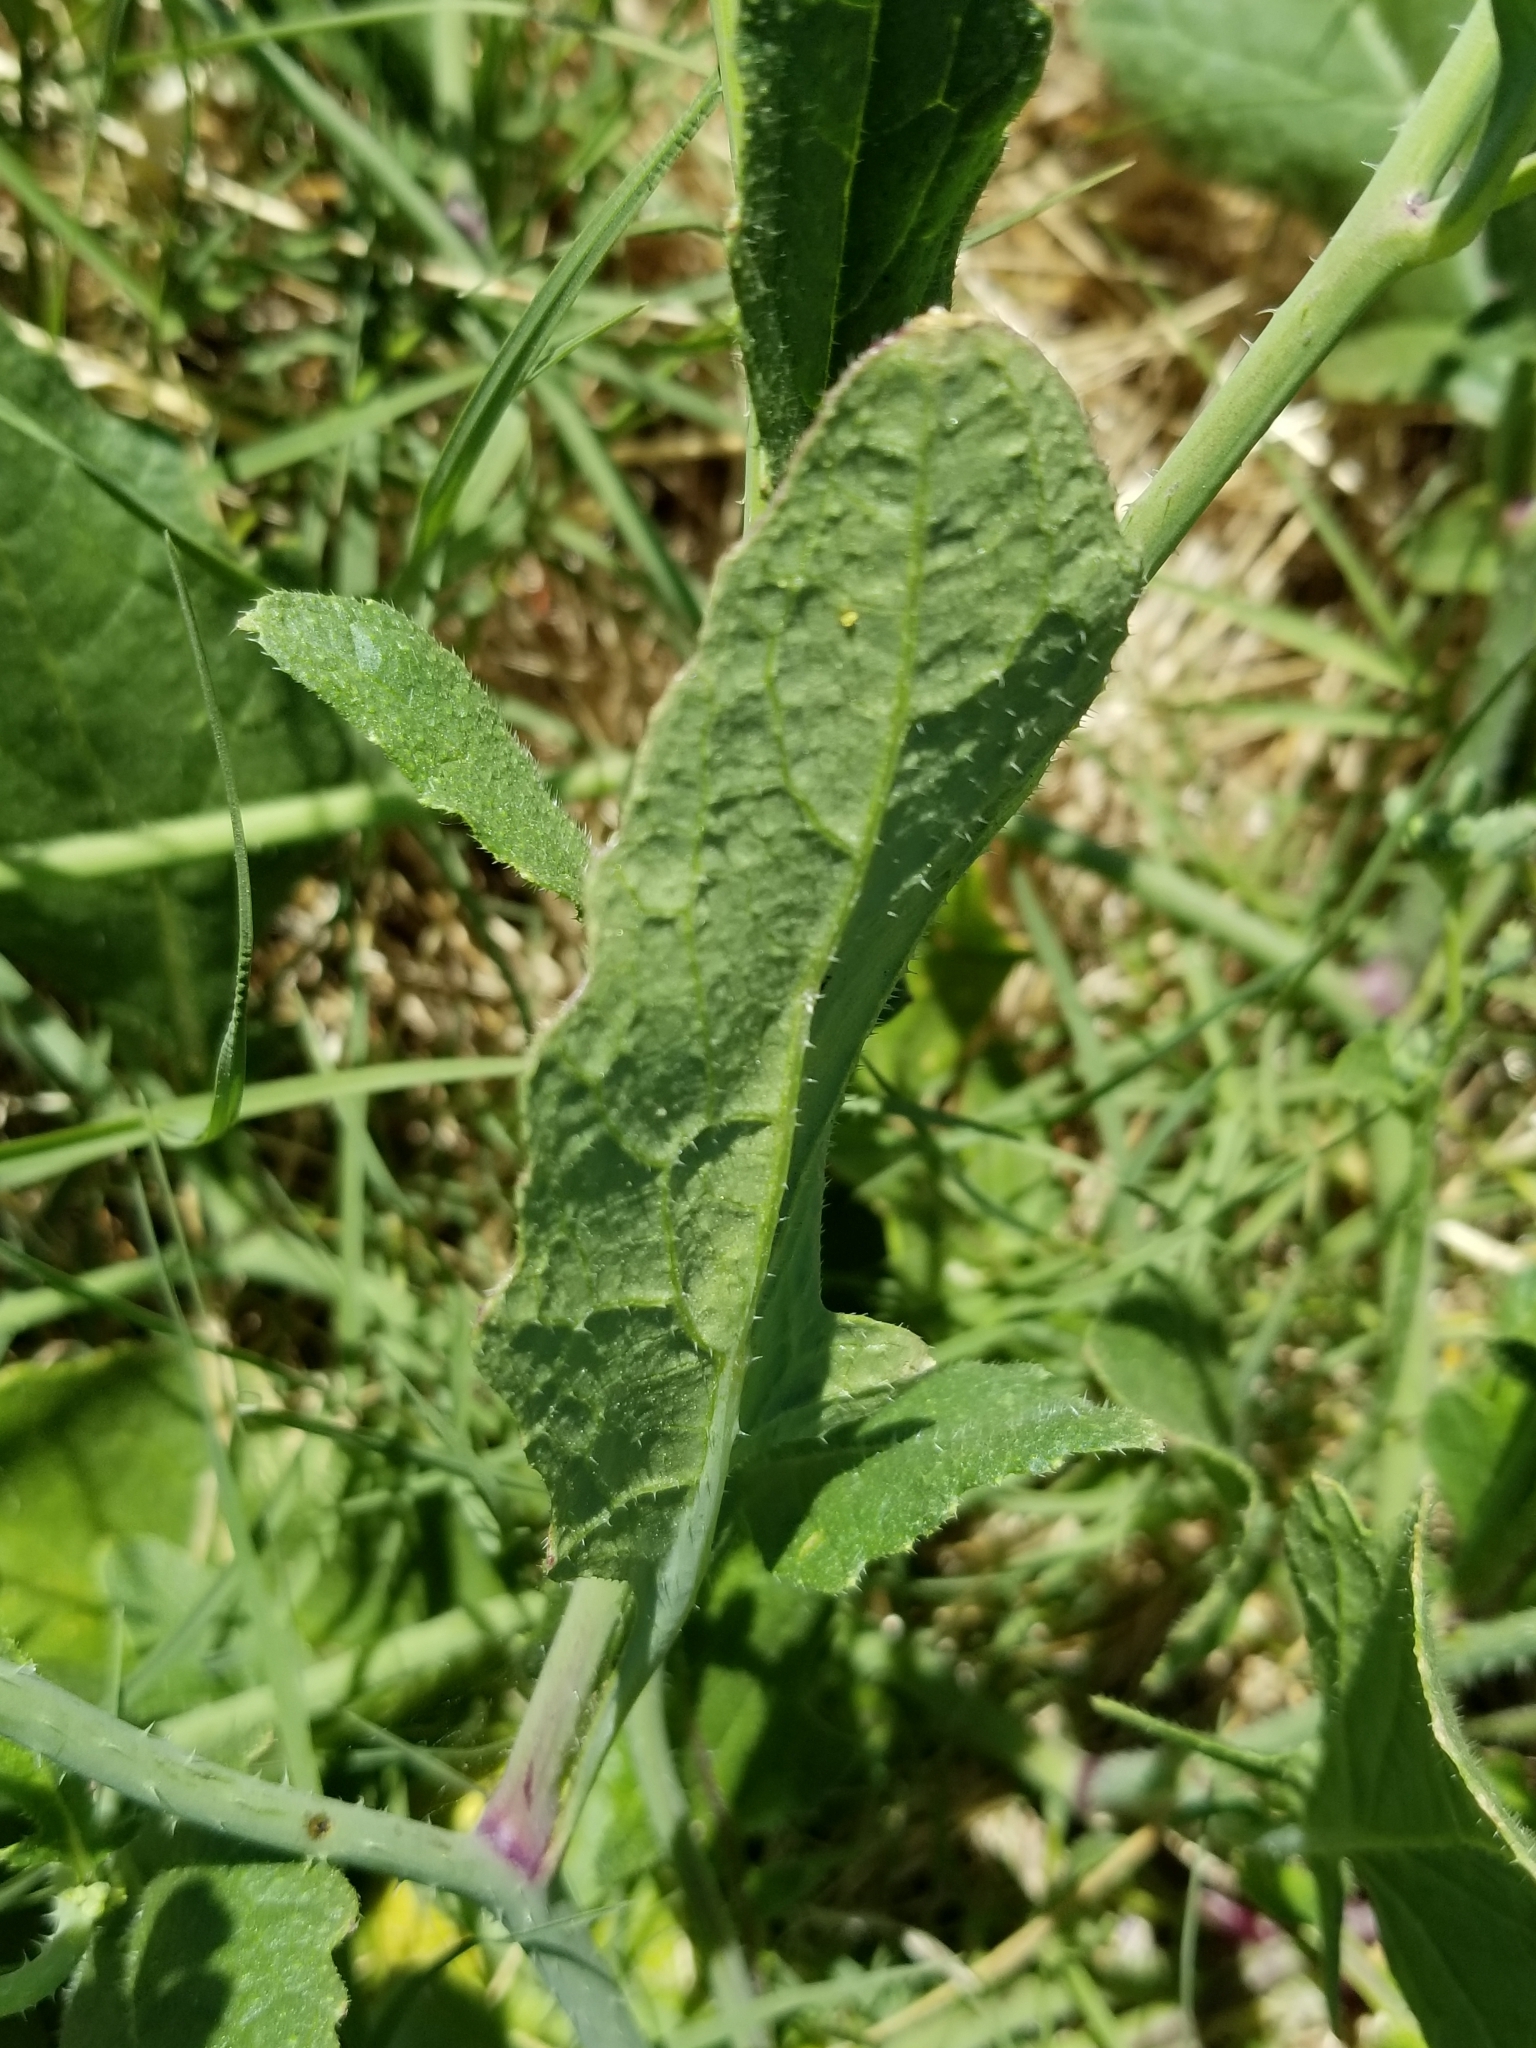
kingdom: Plantae
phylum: Tracheophyta
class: Magnoliopsida
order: Brassicales
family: Brassicaceae
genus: Raphanus
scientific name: Raphanus sativus
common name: Cultivated radish
